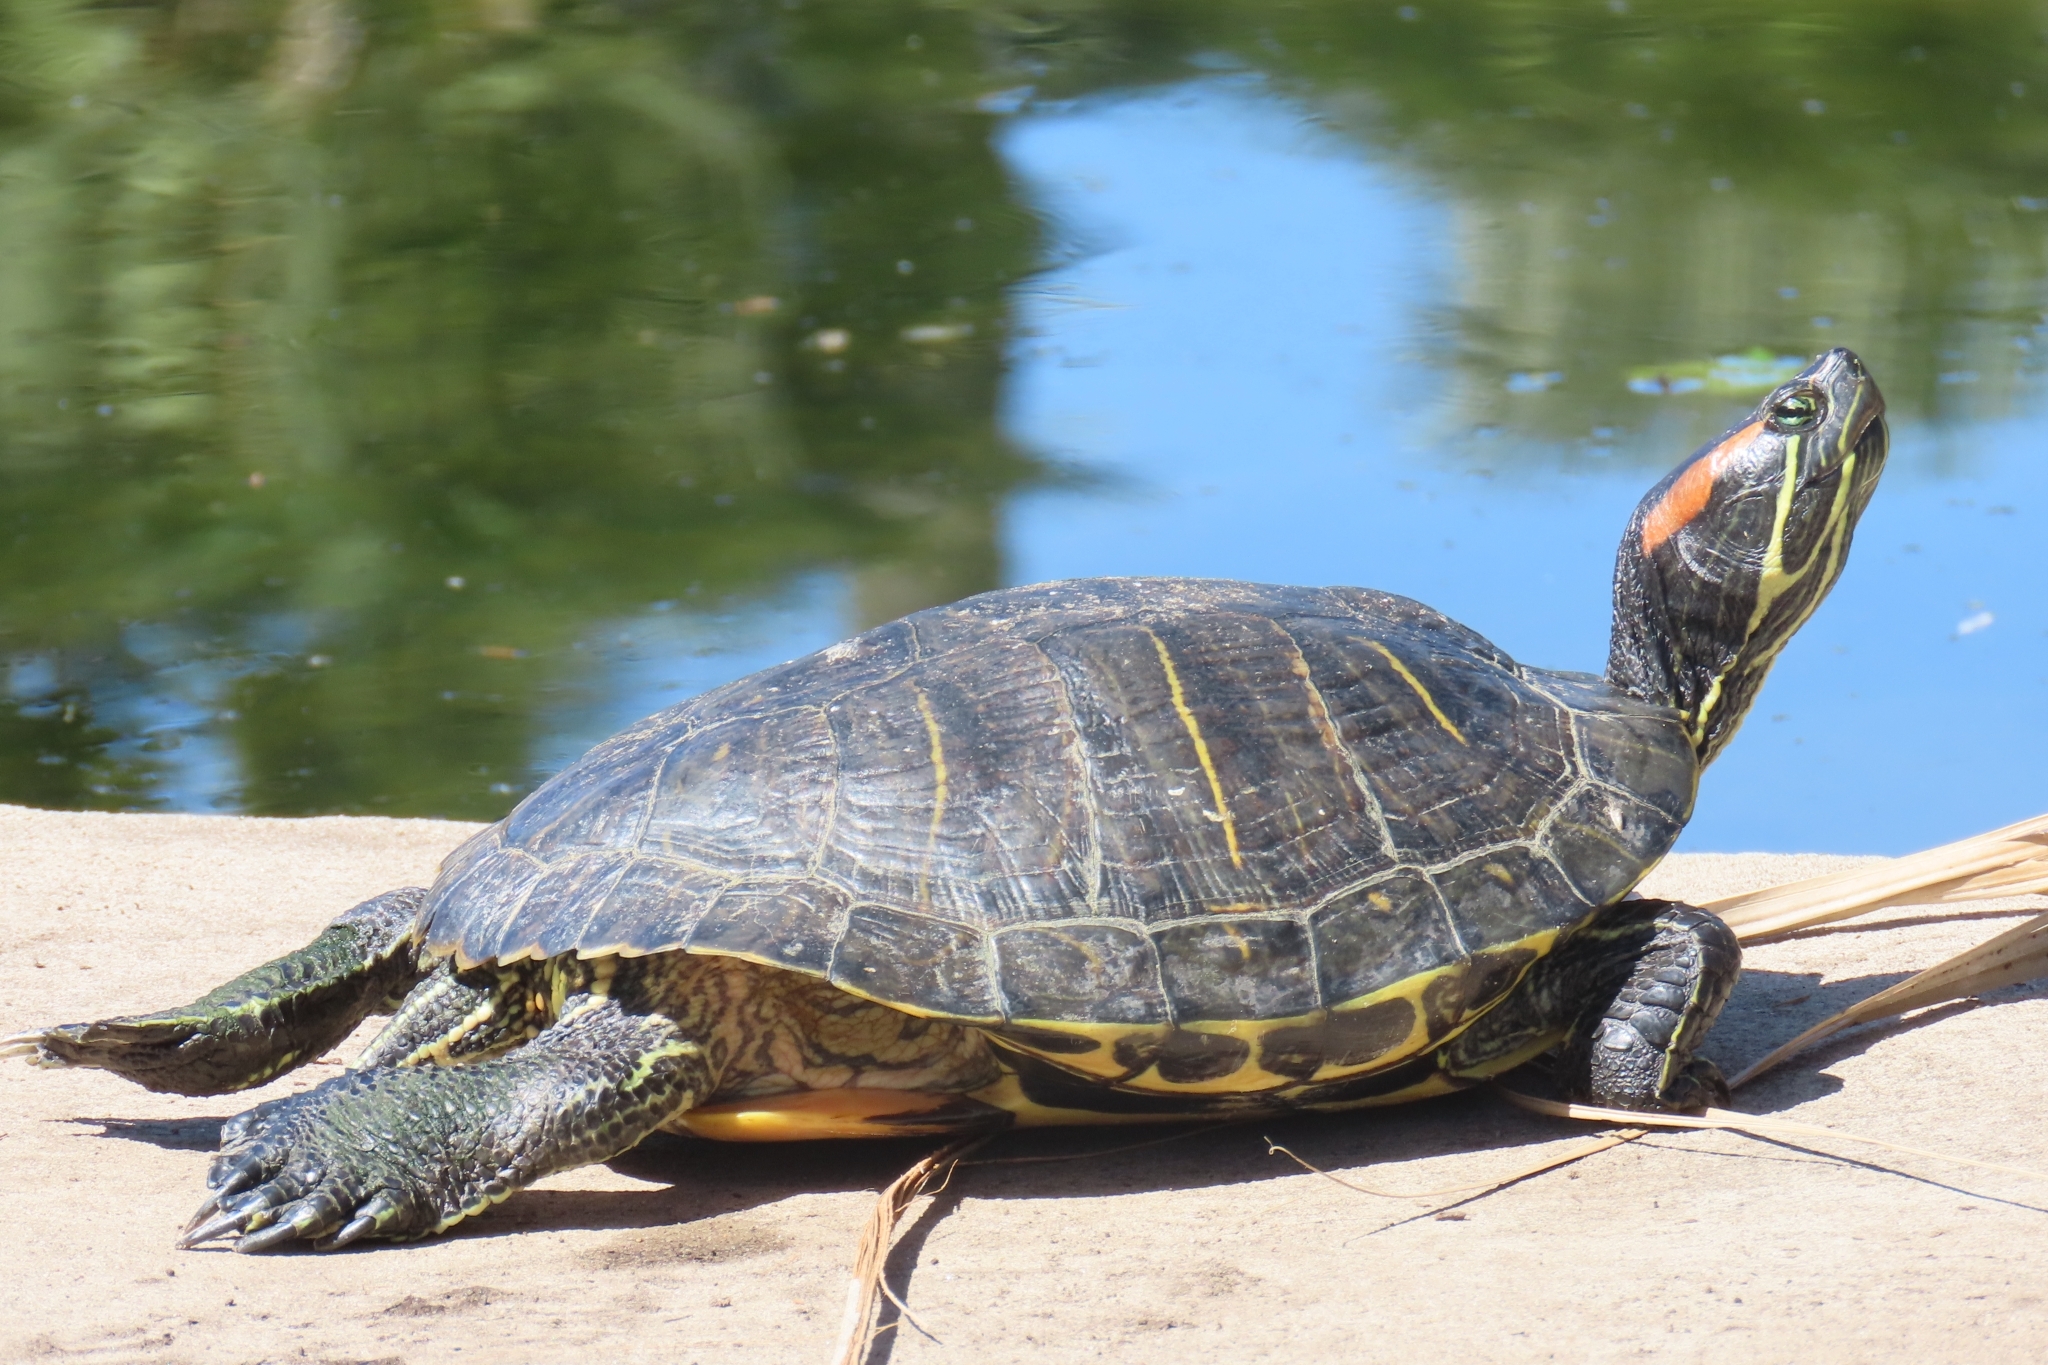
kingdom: Animalia
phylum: Chordata
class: Testudines
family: Emydidae
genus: Trachemys
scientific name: Trachemys scripta
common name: Slider
